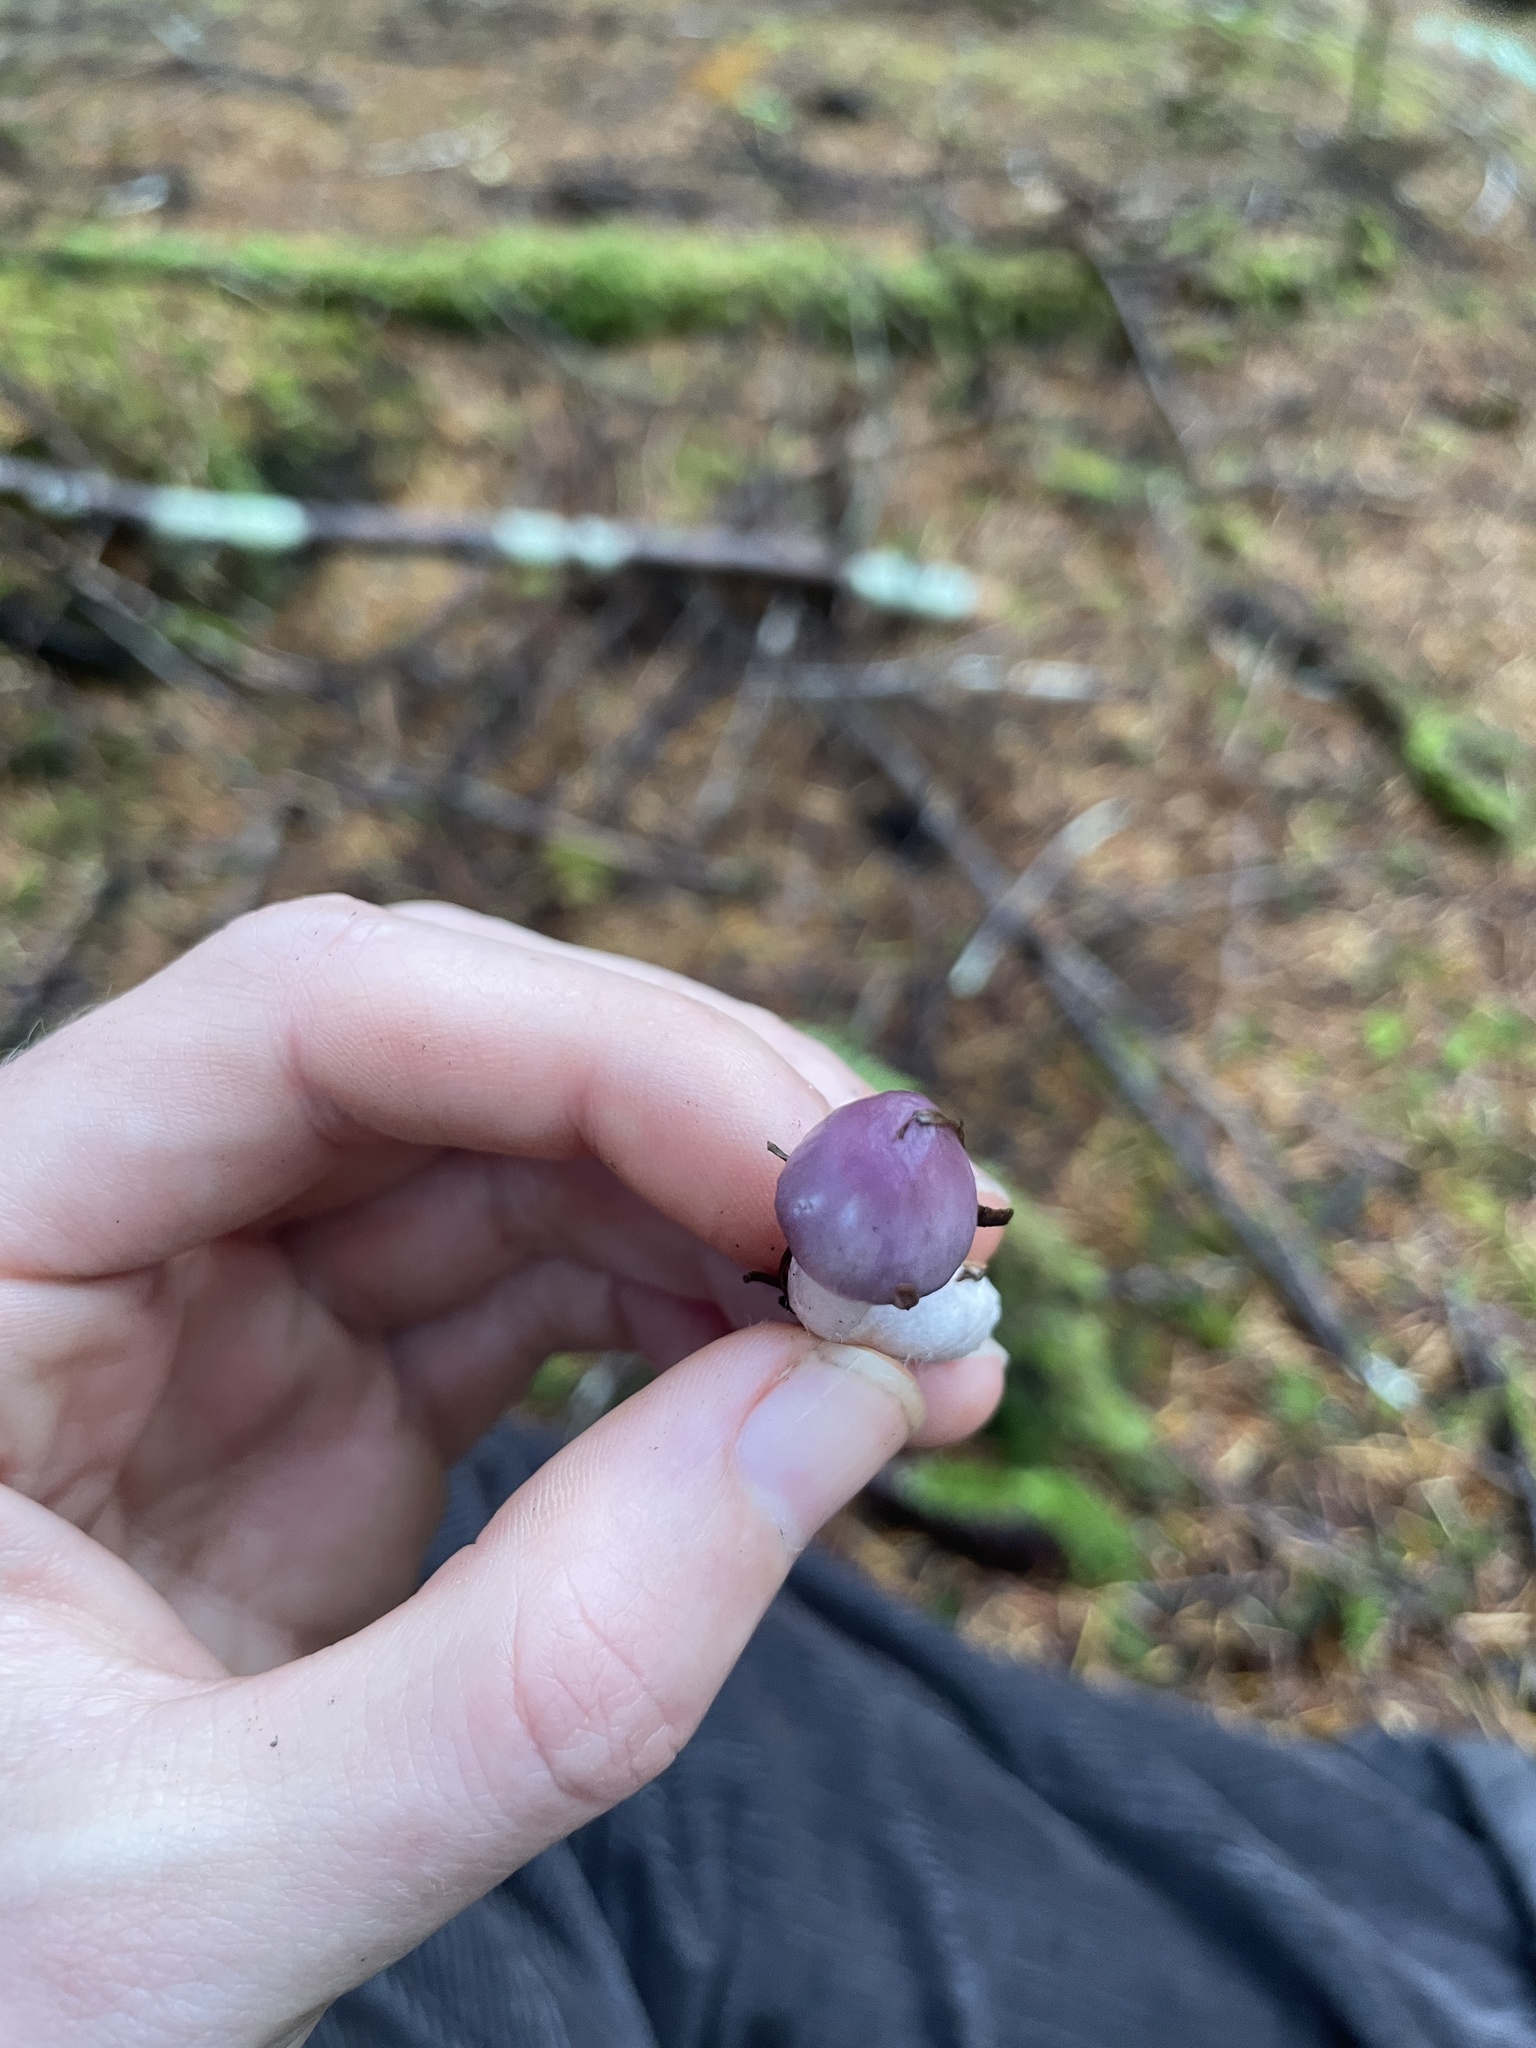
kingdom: Fungi
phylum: Basidiomycota
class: Agaricomycetes
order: Agaricales
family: Inocybaceae
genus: Inocybe
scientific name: Inocybe pallidicremea
